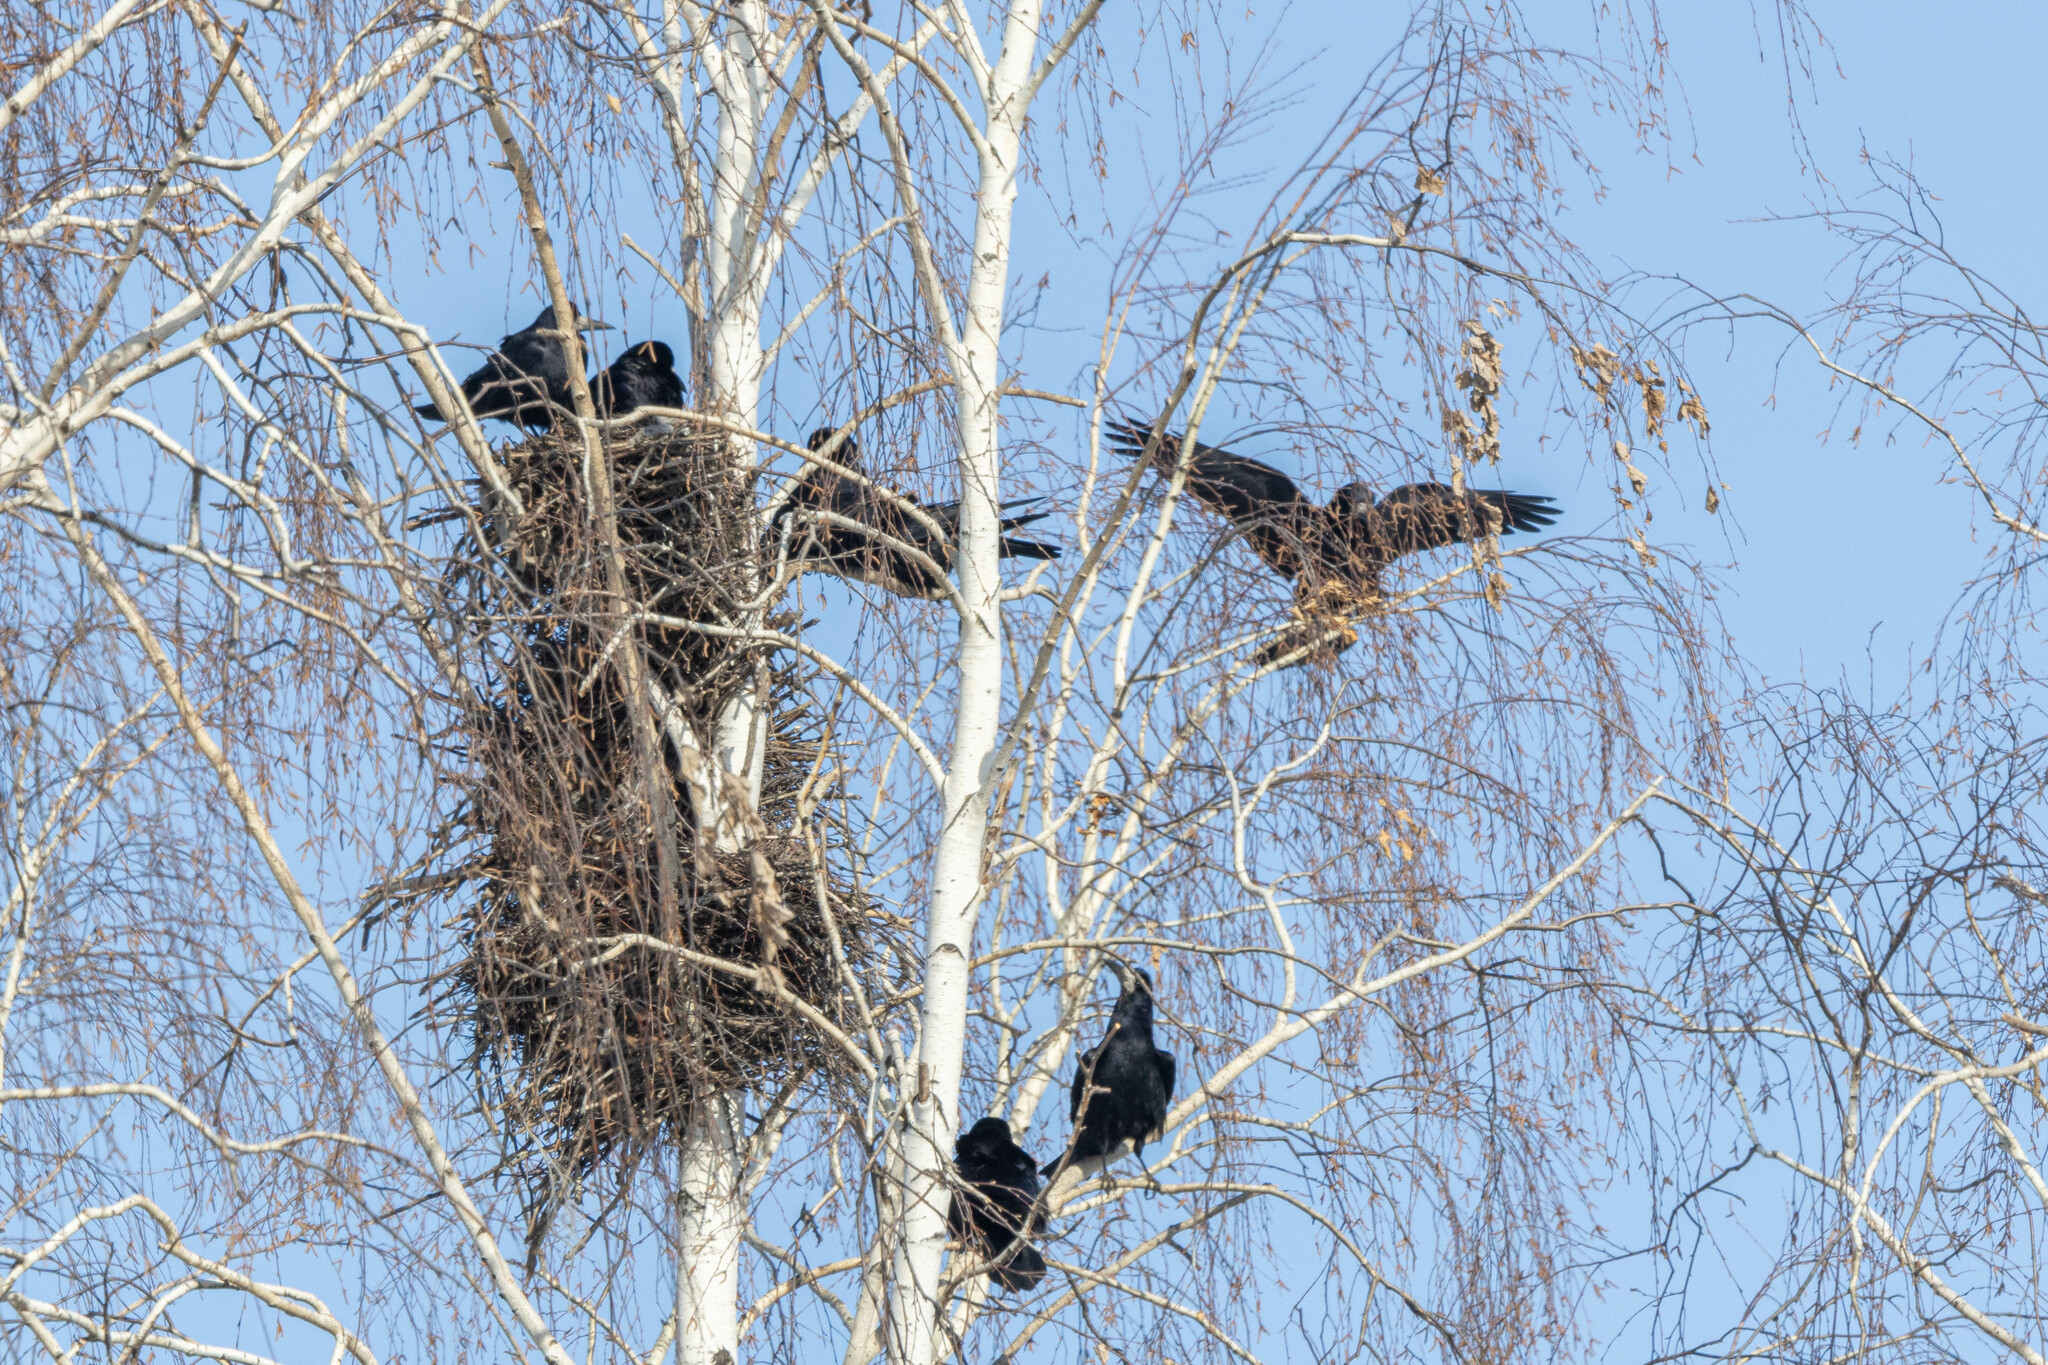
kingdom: Animalia
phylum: Chordata
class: Aves
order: Passeriformes
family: Corvidae
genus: Corvus
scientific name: Corvus frugilegus
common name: Rook
